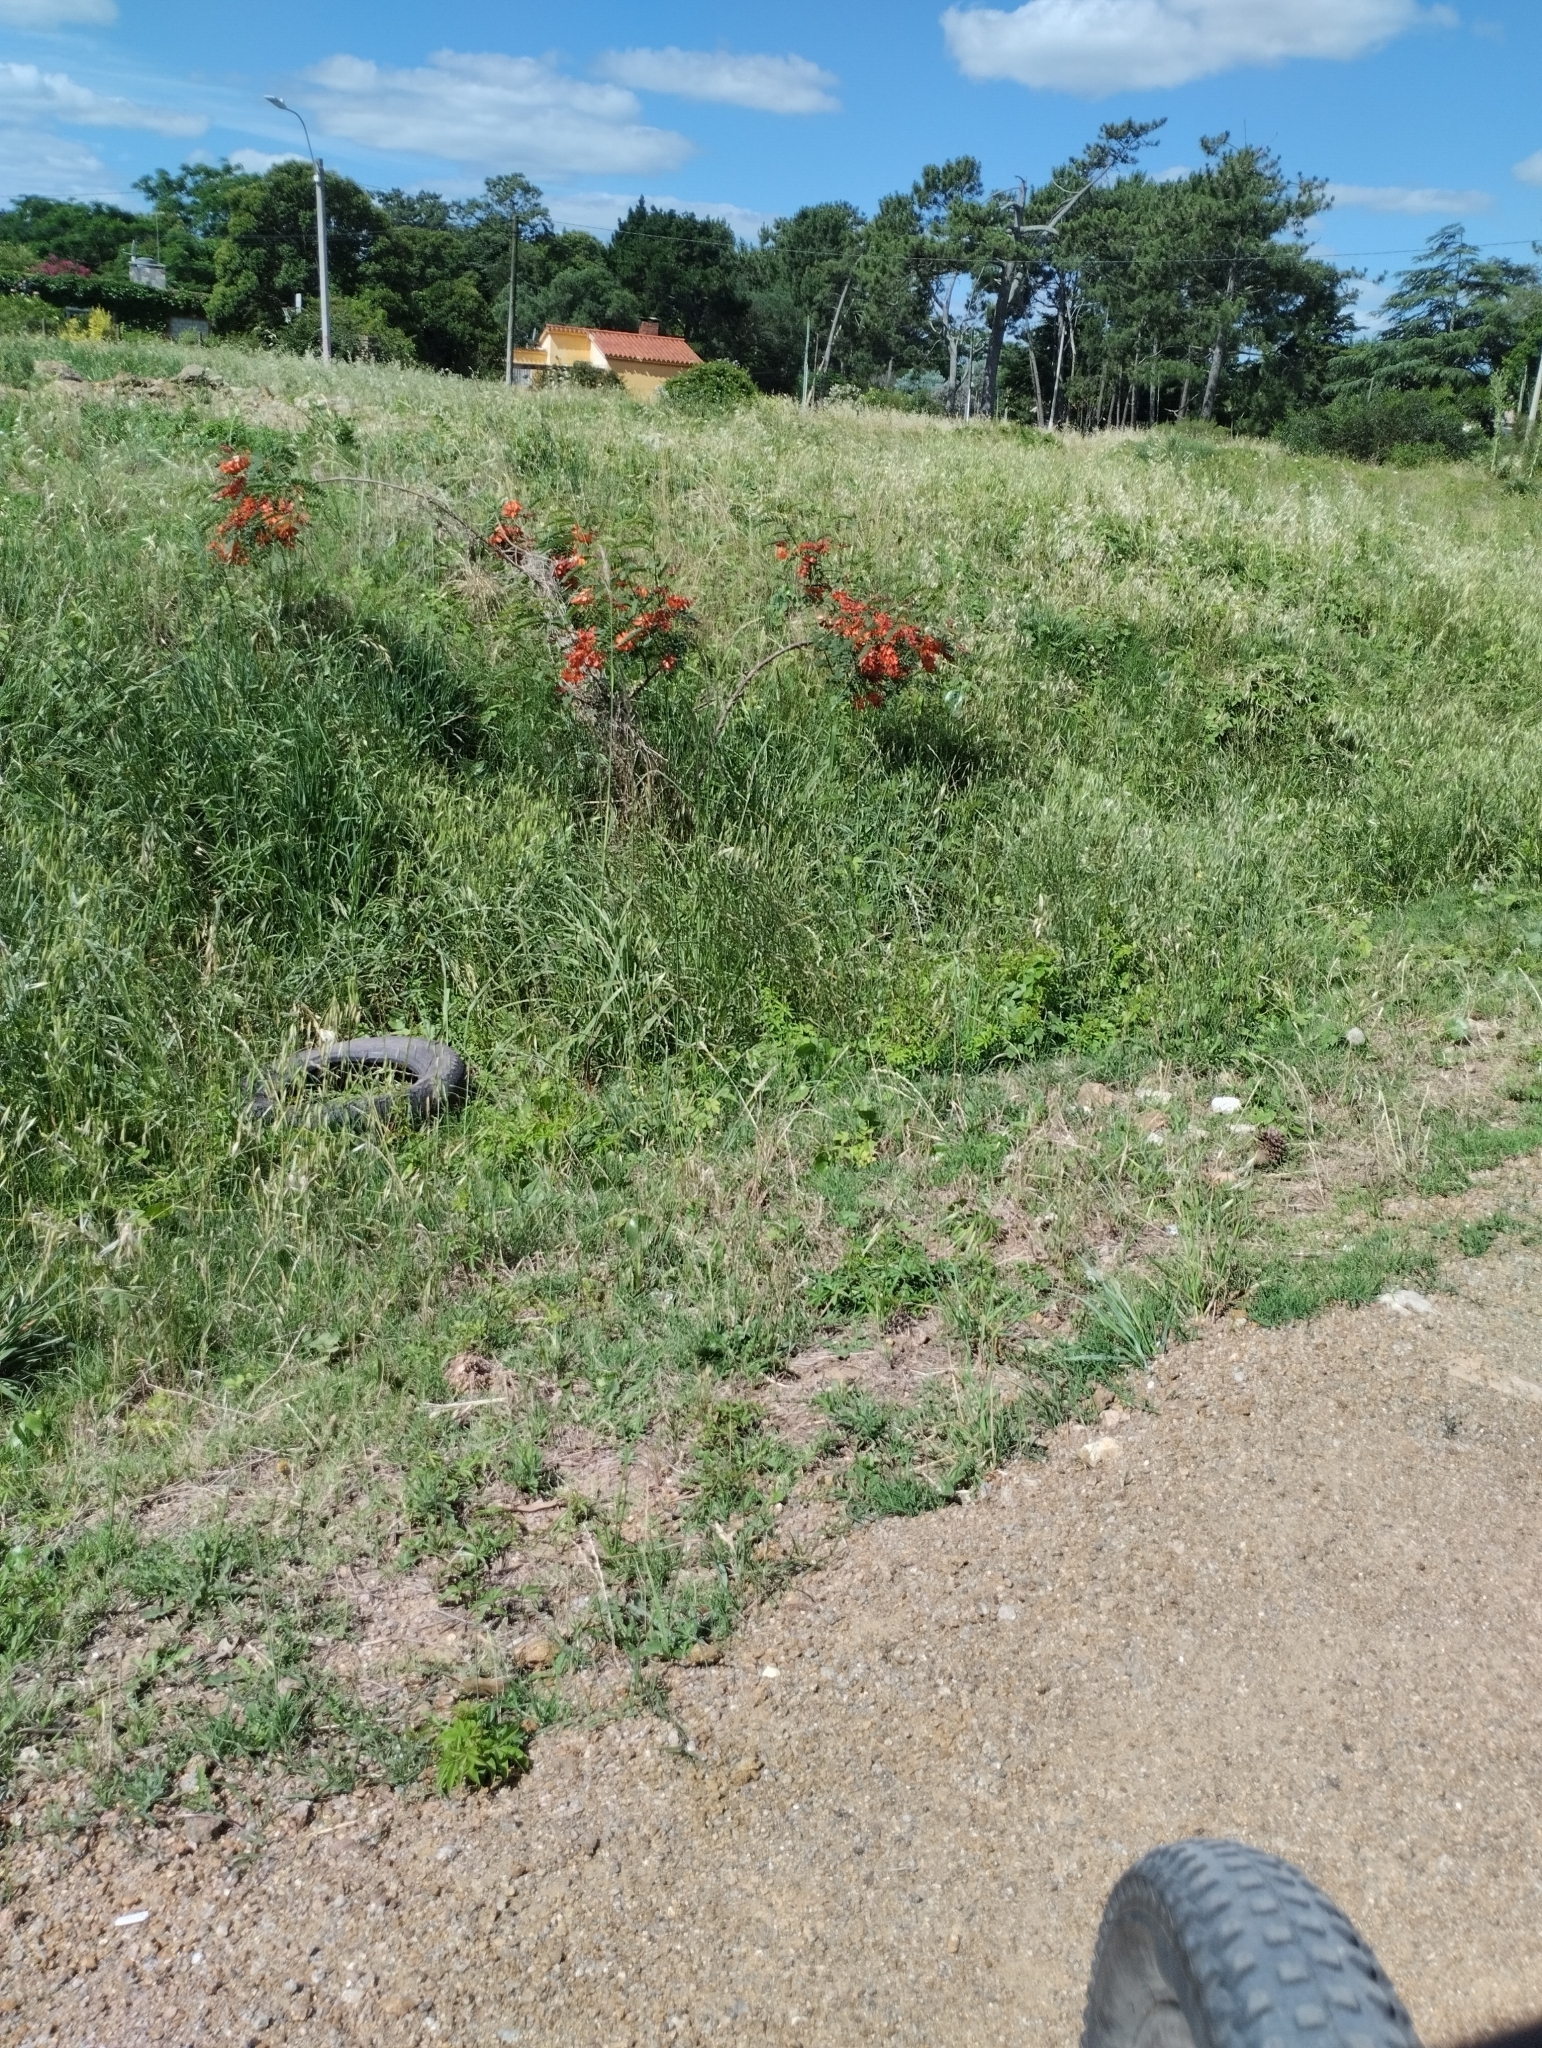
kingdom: Plantae
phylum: Tracheophyta
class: Magnoliopsida
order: Fabales
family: Fabaceae
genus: Sesbania
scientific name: Sesbania punicea
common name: Rattlebox
